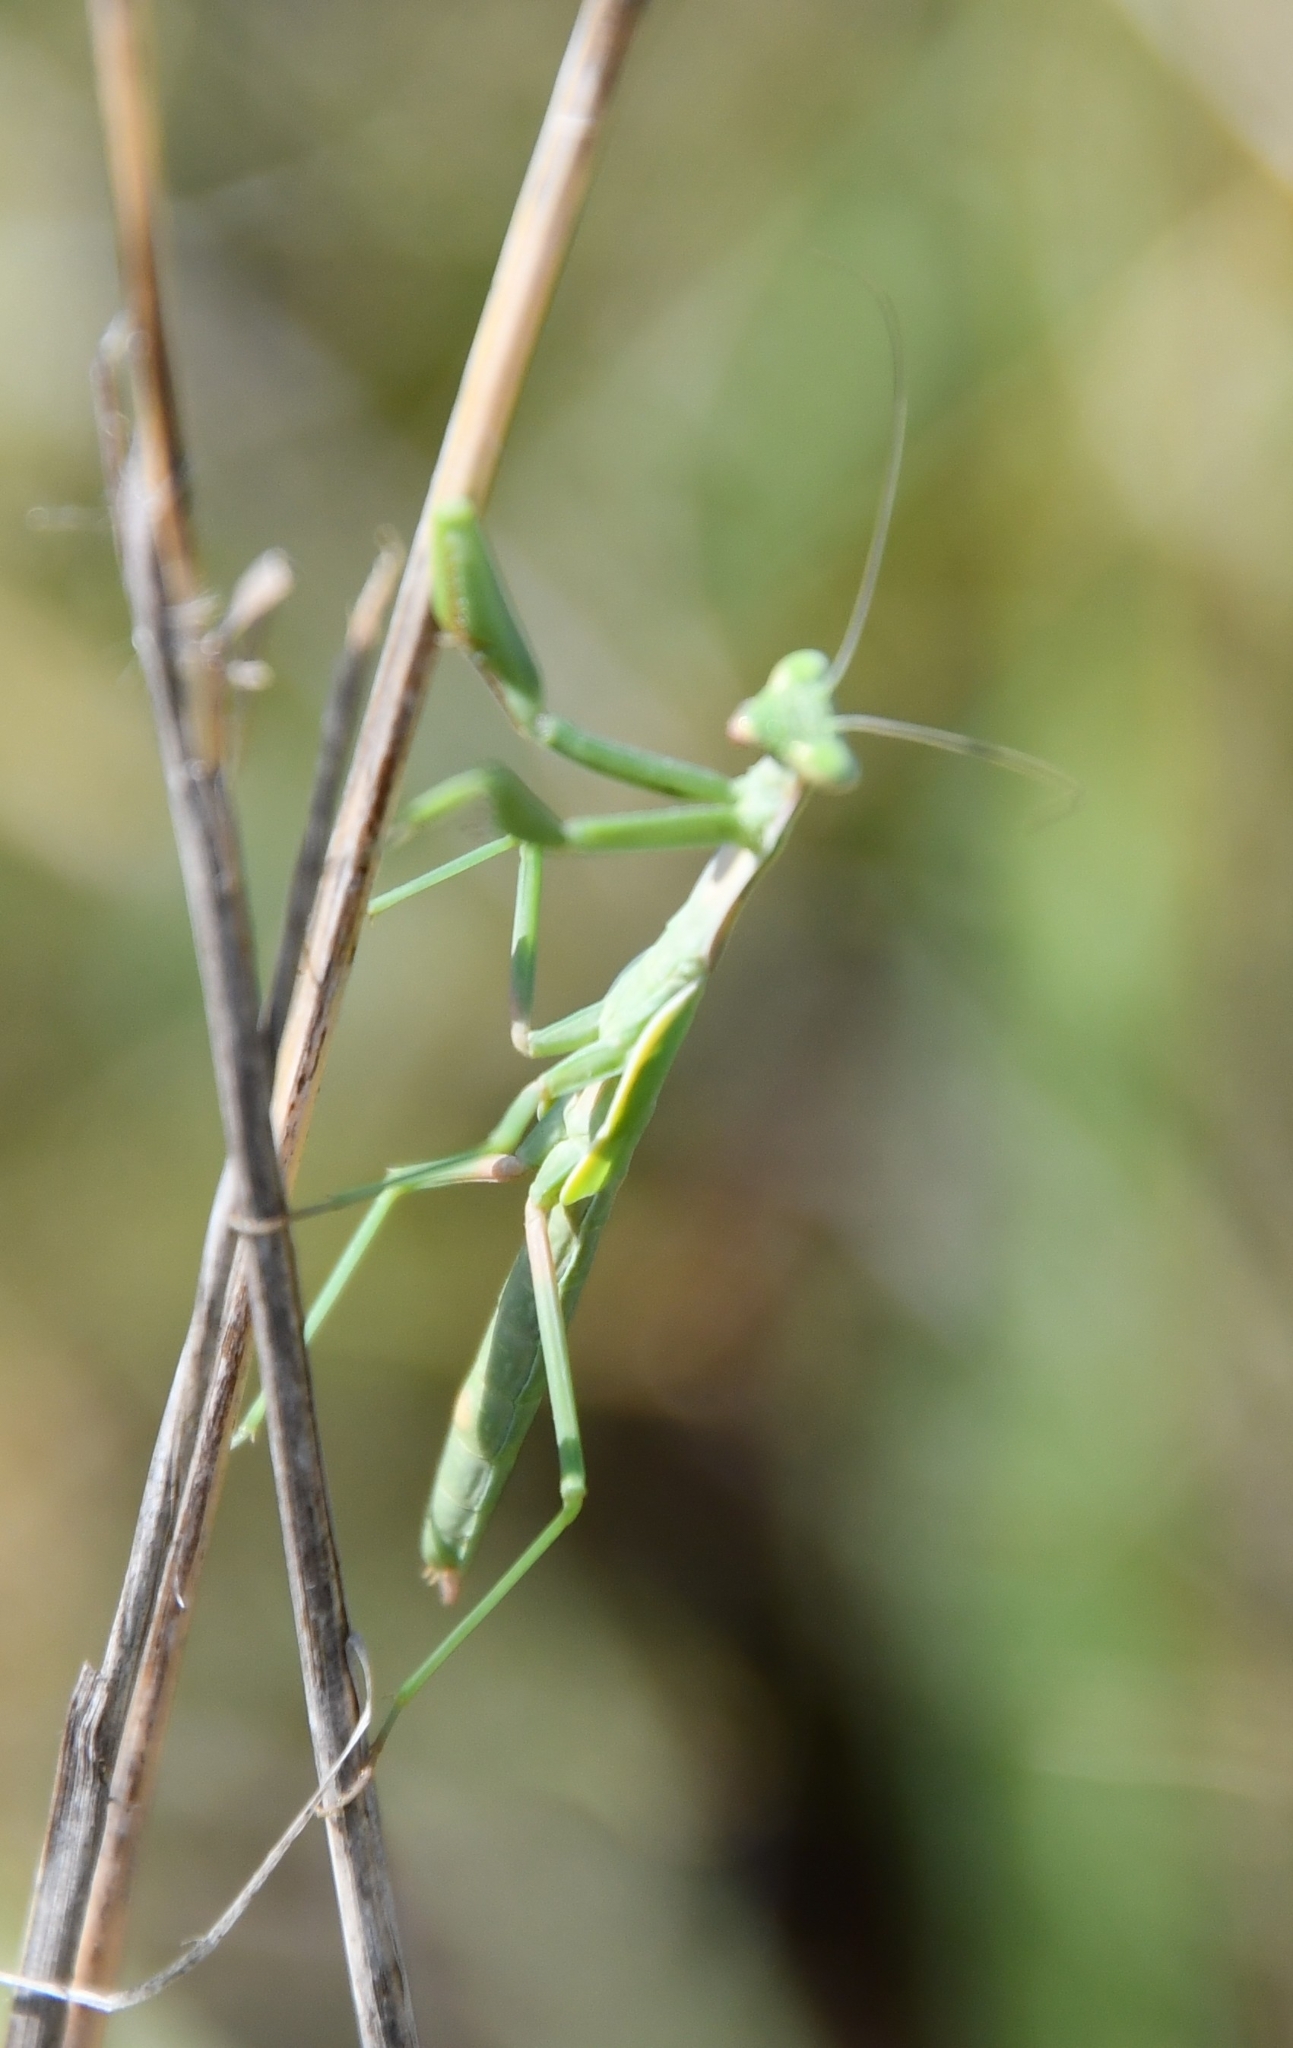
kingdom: Animalia
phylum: Arthropoda
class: Insecta
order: Mantodea
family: Eremiaphilidae
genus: Iris
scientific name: Iris polystictica
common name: Dot-winged mantis
